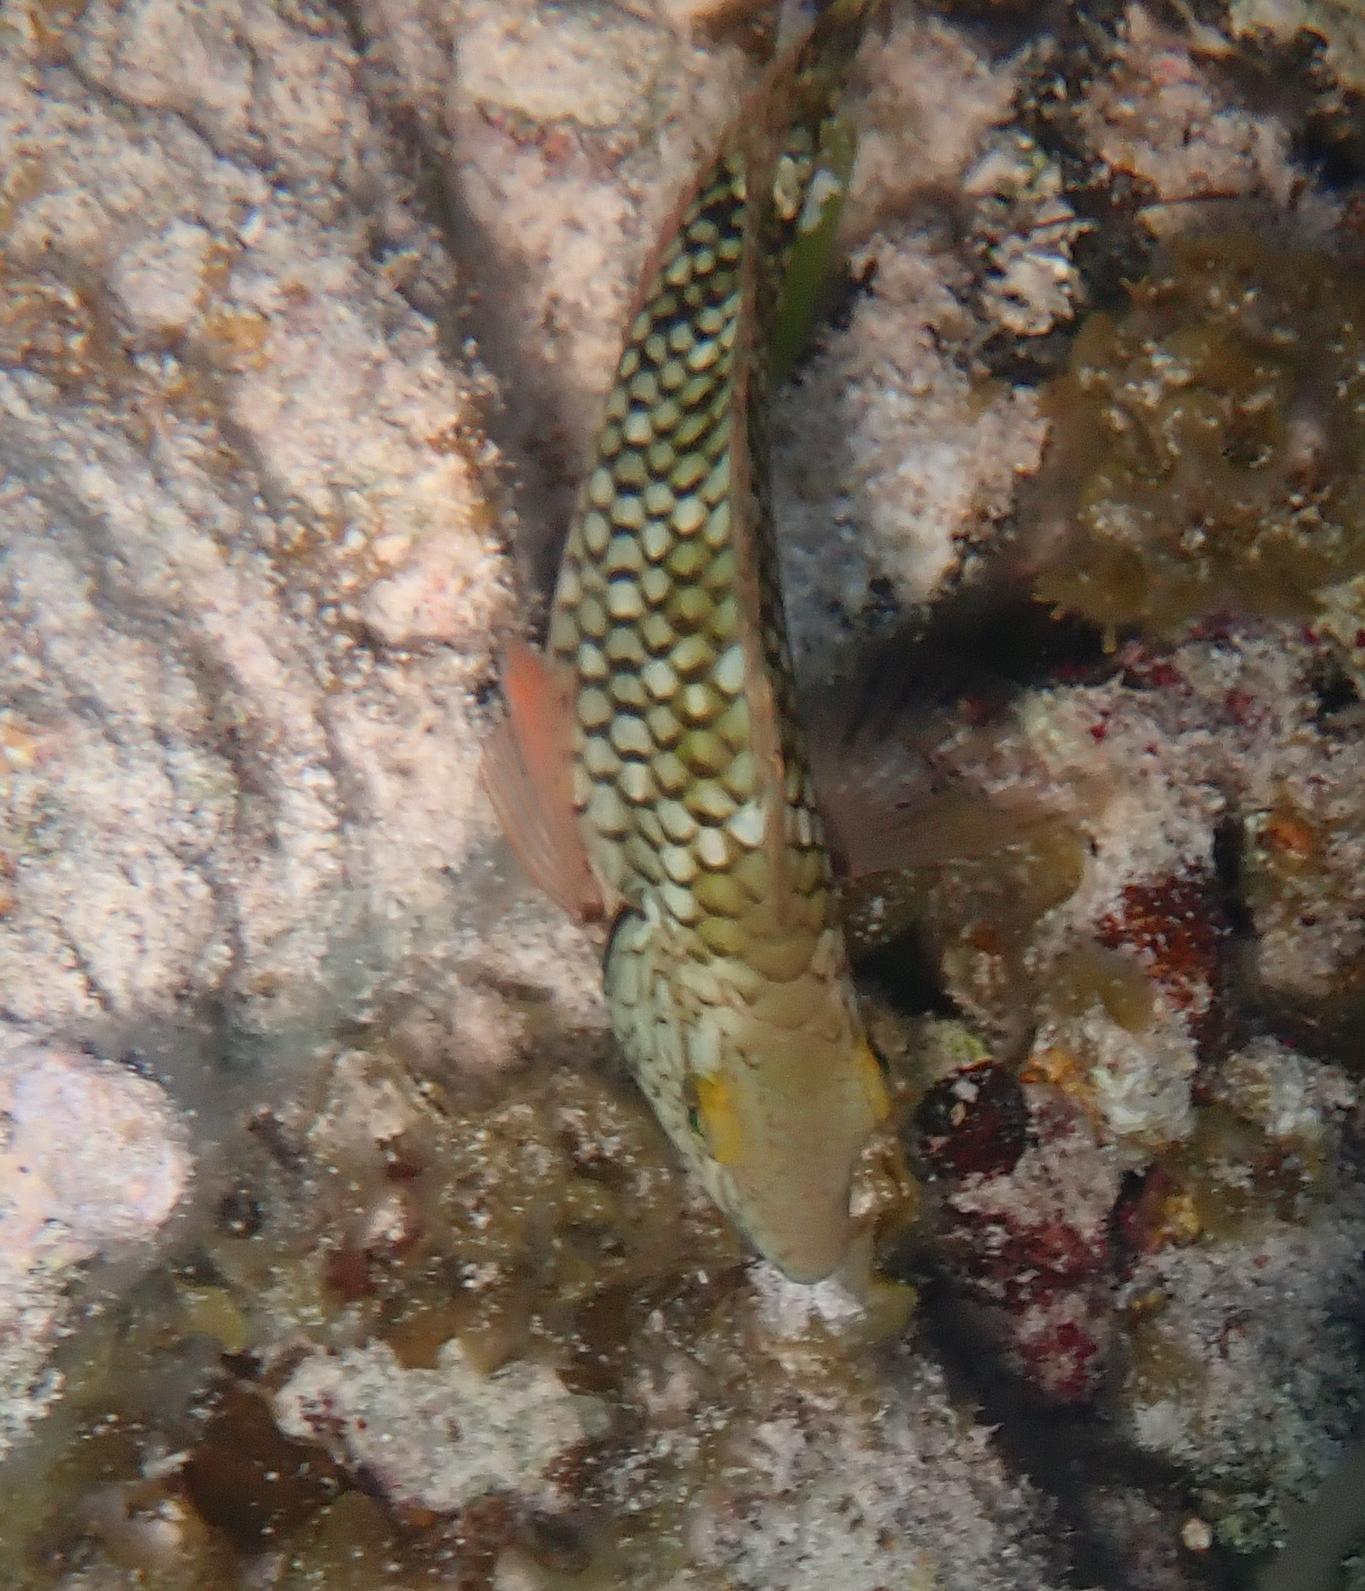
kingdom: Animalia
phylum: Chordata
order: Perciformes
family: Scaridae
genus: Sparisoma
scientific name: Sparisoma viride
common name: Stoplight parrotfish
